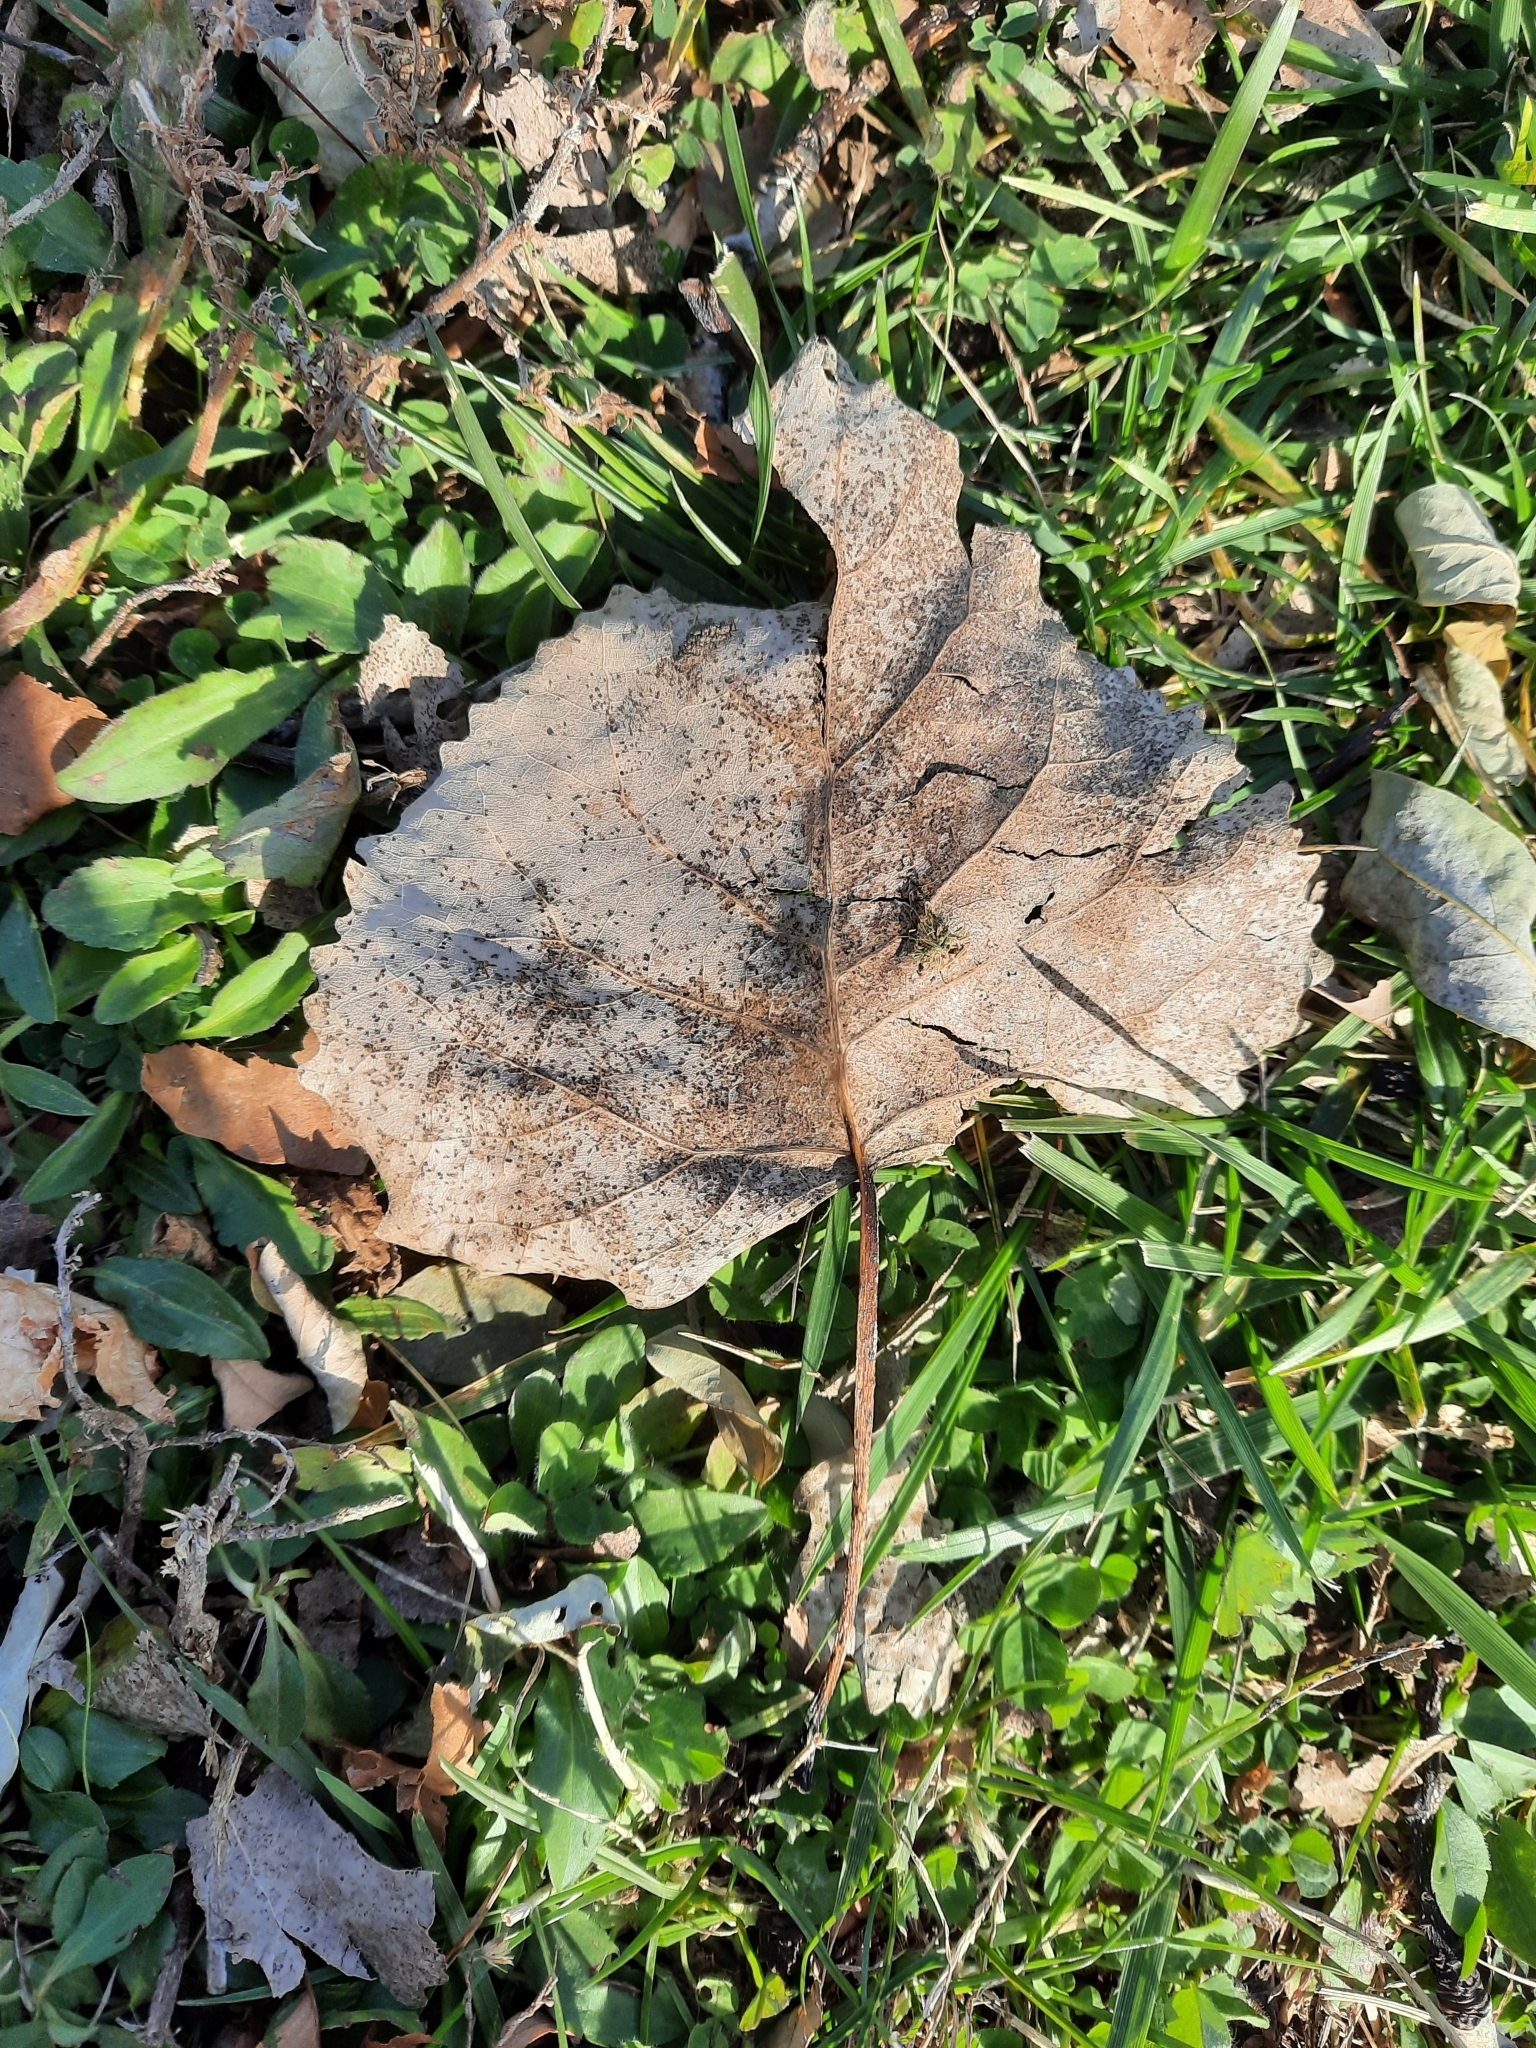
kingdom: Plantae
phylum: Tracheophyta
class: Magnoliopsida
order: Malpighiales
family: Salicaceae
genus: Populus
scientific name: Populus deltoides
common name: Eastern cottonwood
